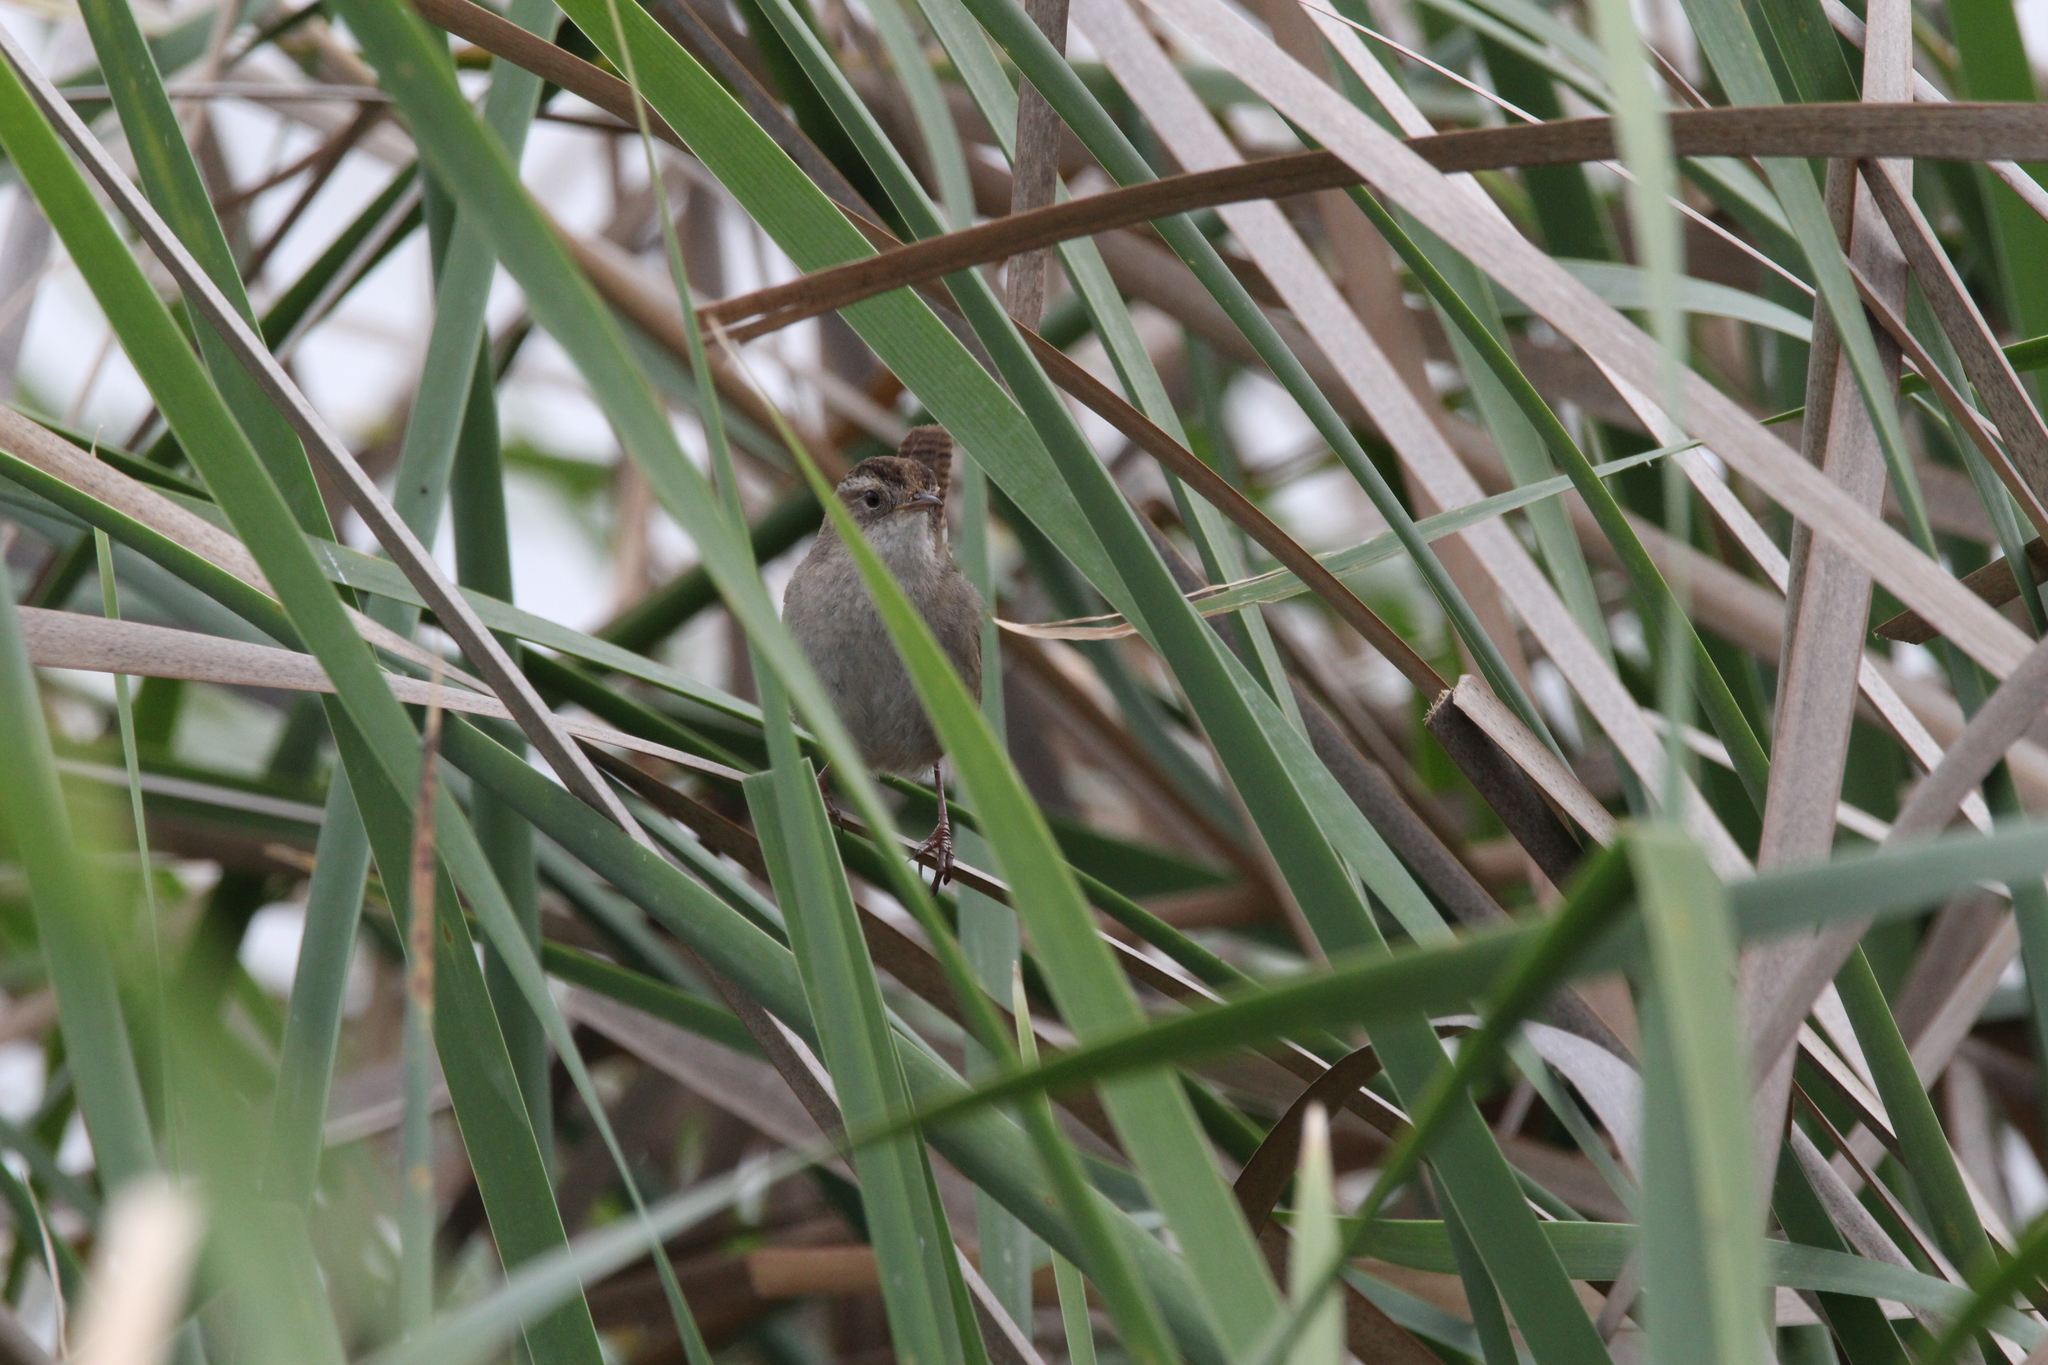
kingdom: Animalia
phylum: Chordata
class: Aves
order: Passeriformes
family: Troglodytidae
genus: Cistothorus
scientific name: Cistothorus palustris
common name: Marsh wren
